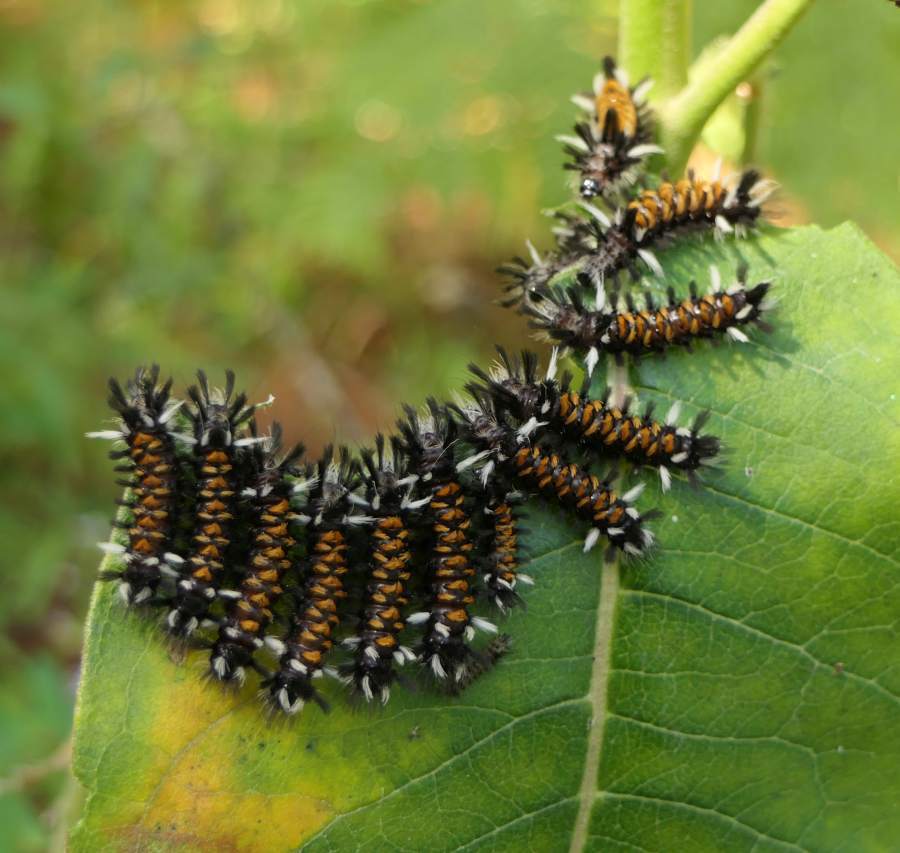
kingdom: Animalia
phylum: Arthropoda
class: Insecta
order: Lepidoptera
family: Erebidae
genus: Euchaetes
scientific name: Euchaetes egle
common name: Milkweed tussock moth
